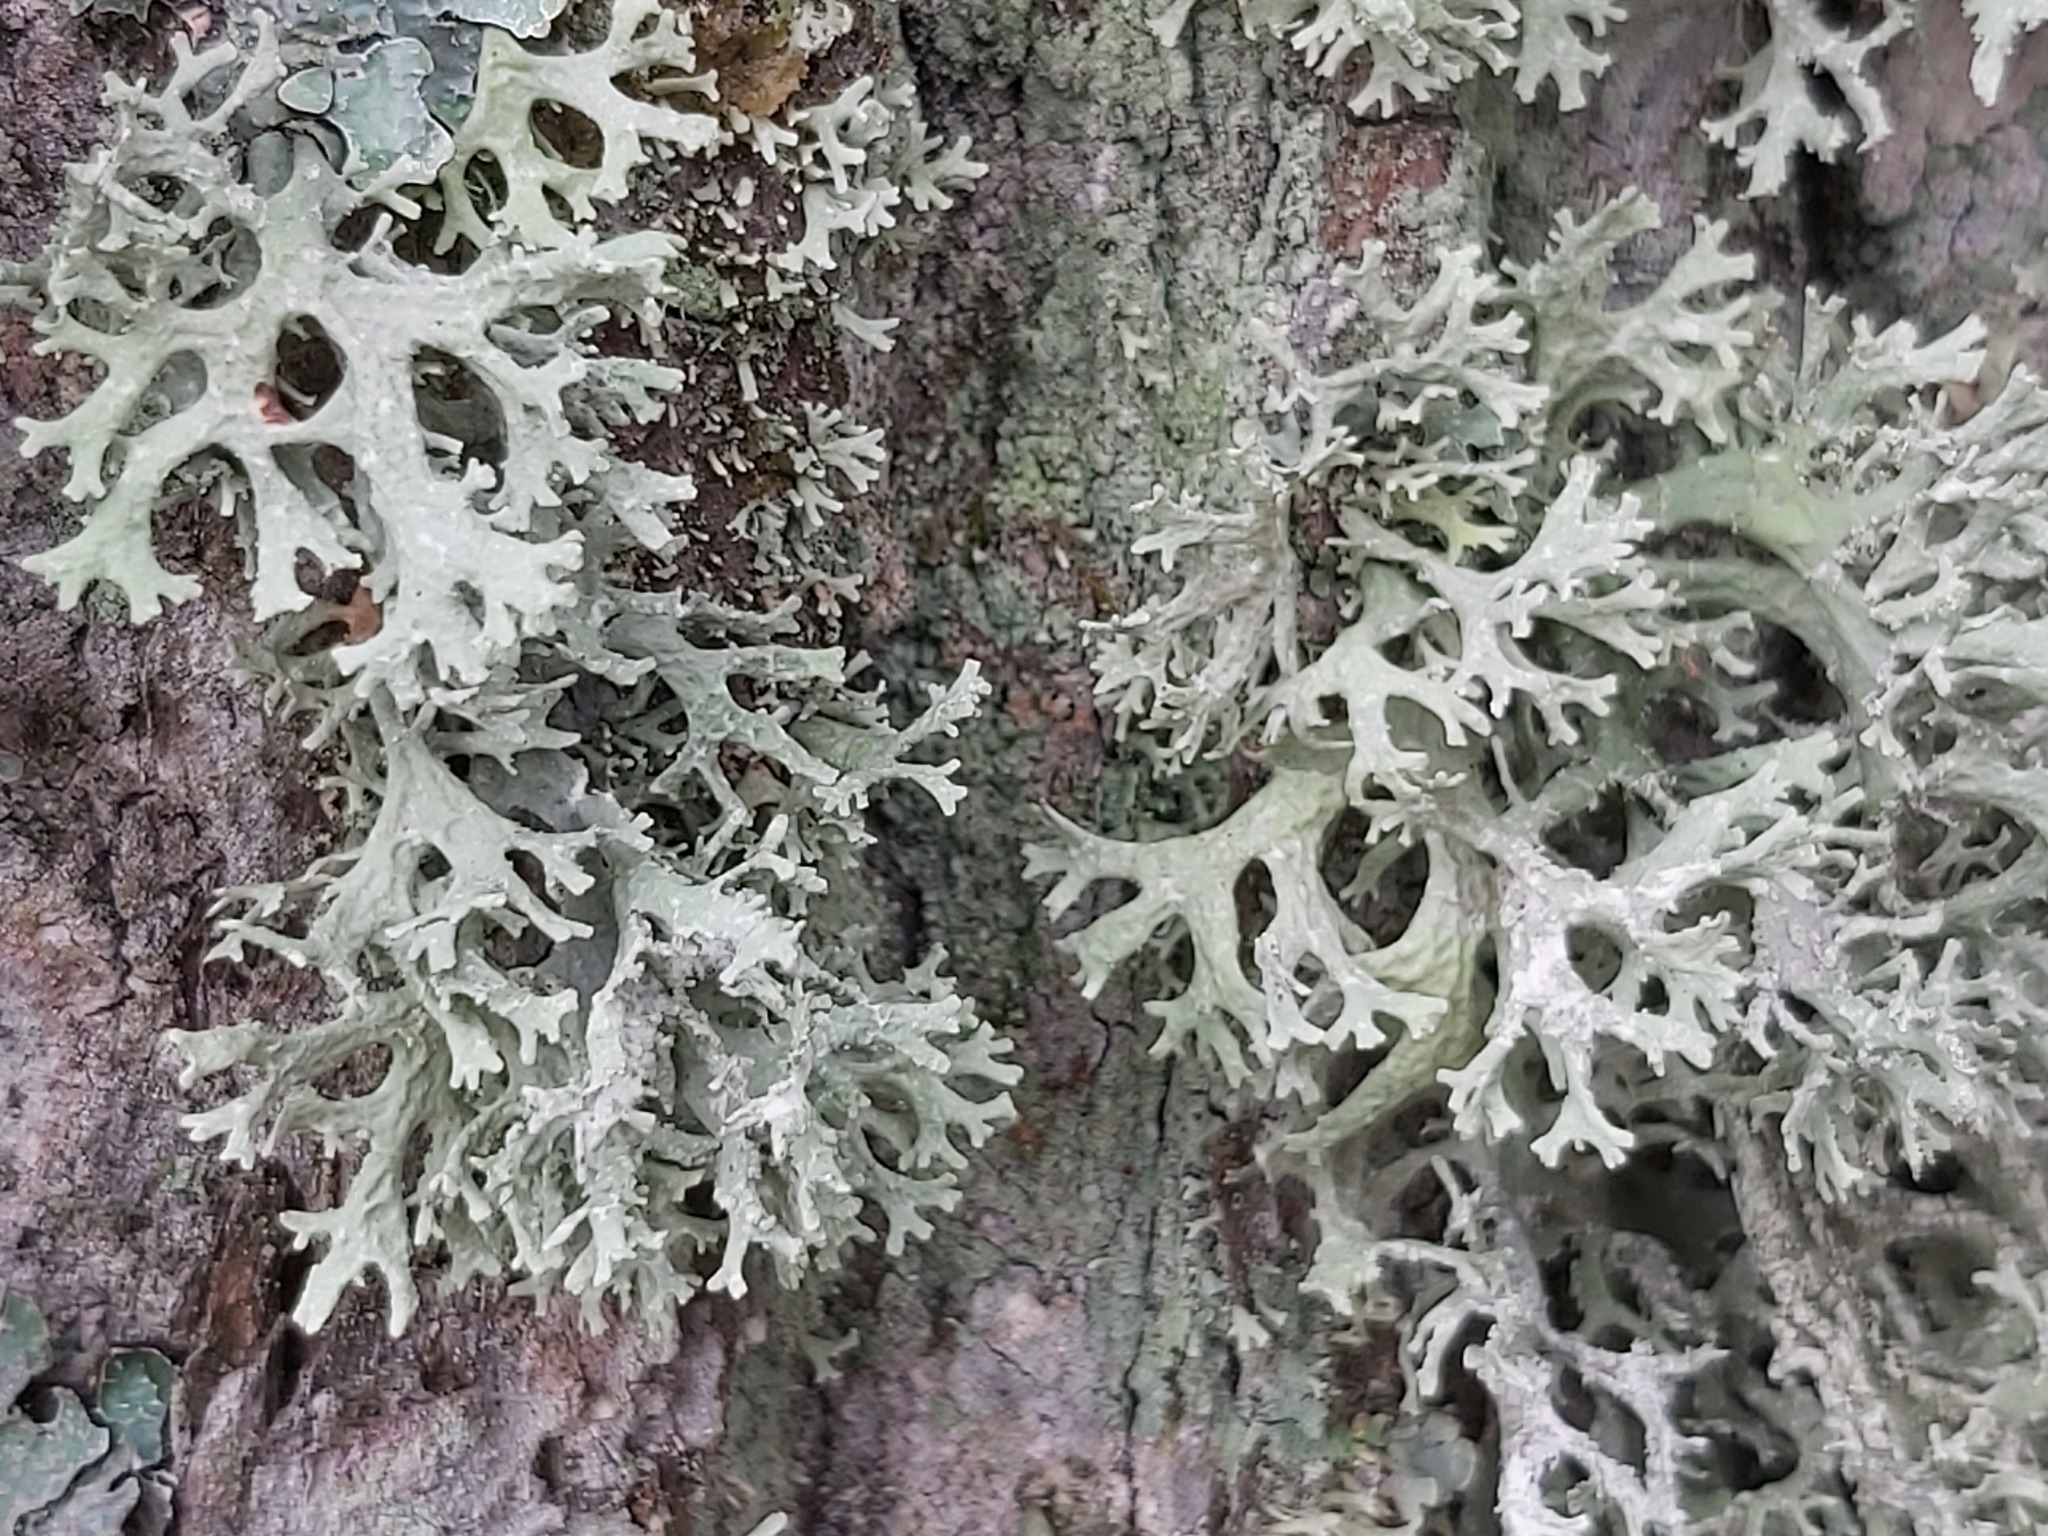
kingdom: Fungi
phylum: Ascomycota
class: Lecanoromycetes
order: Lecanorales
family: Parmeliaceae
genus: Evernia
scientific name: Evernia prunastri
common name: Oak moss
